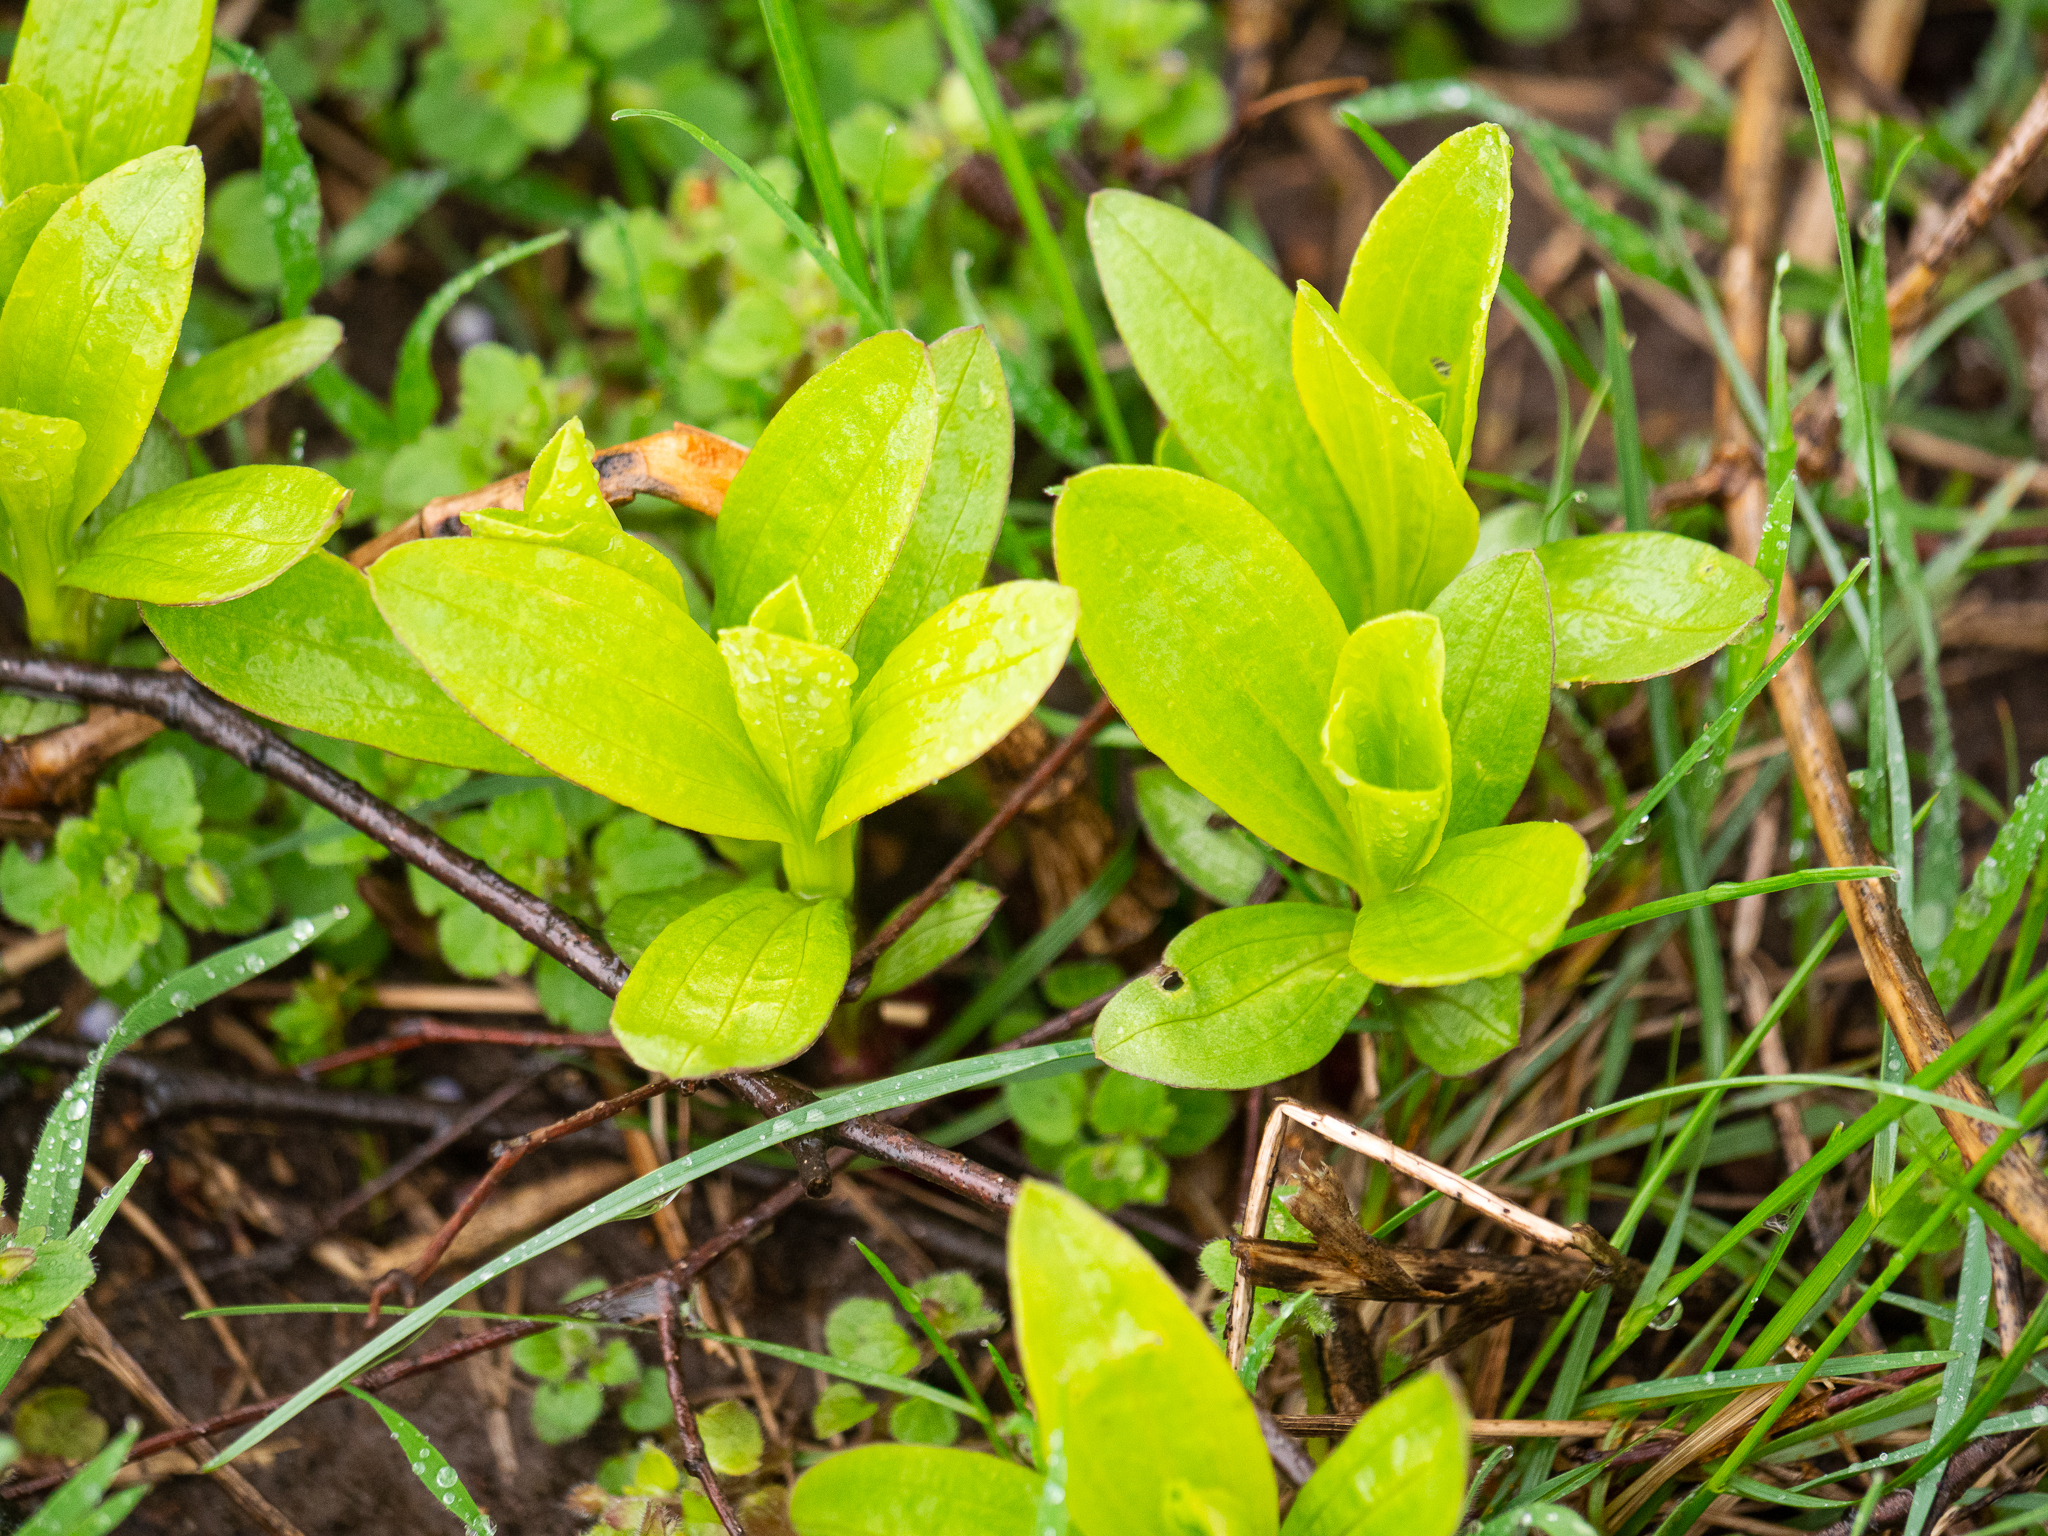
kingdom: Plantae
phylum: Tracheophyta
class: Magnoliopsida
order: Caryophyllales
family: Caryophyllaceae
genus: Saponaria
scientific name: Saponaria officinalis
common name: Soapwort
